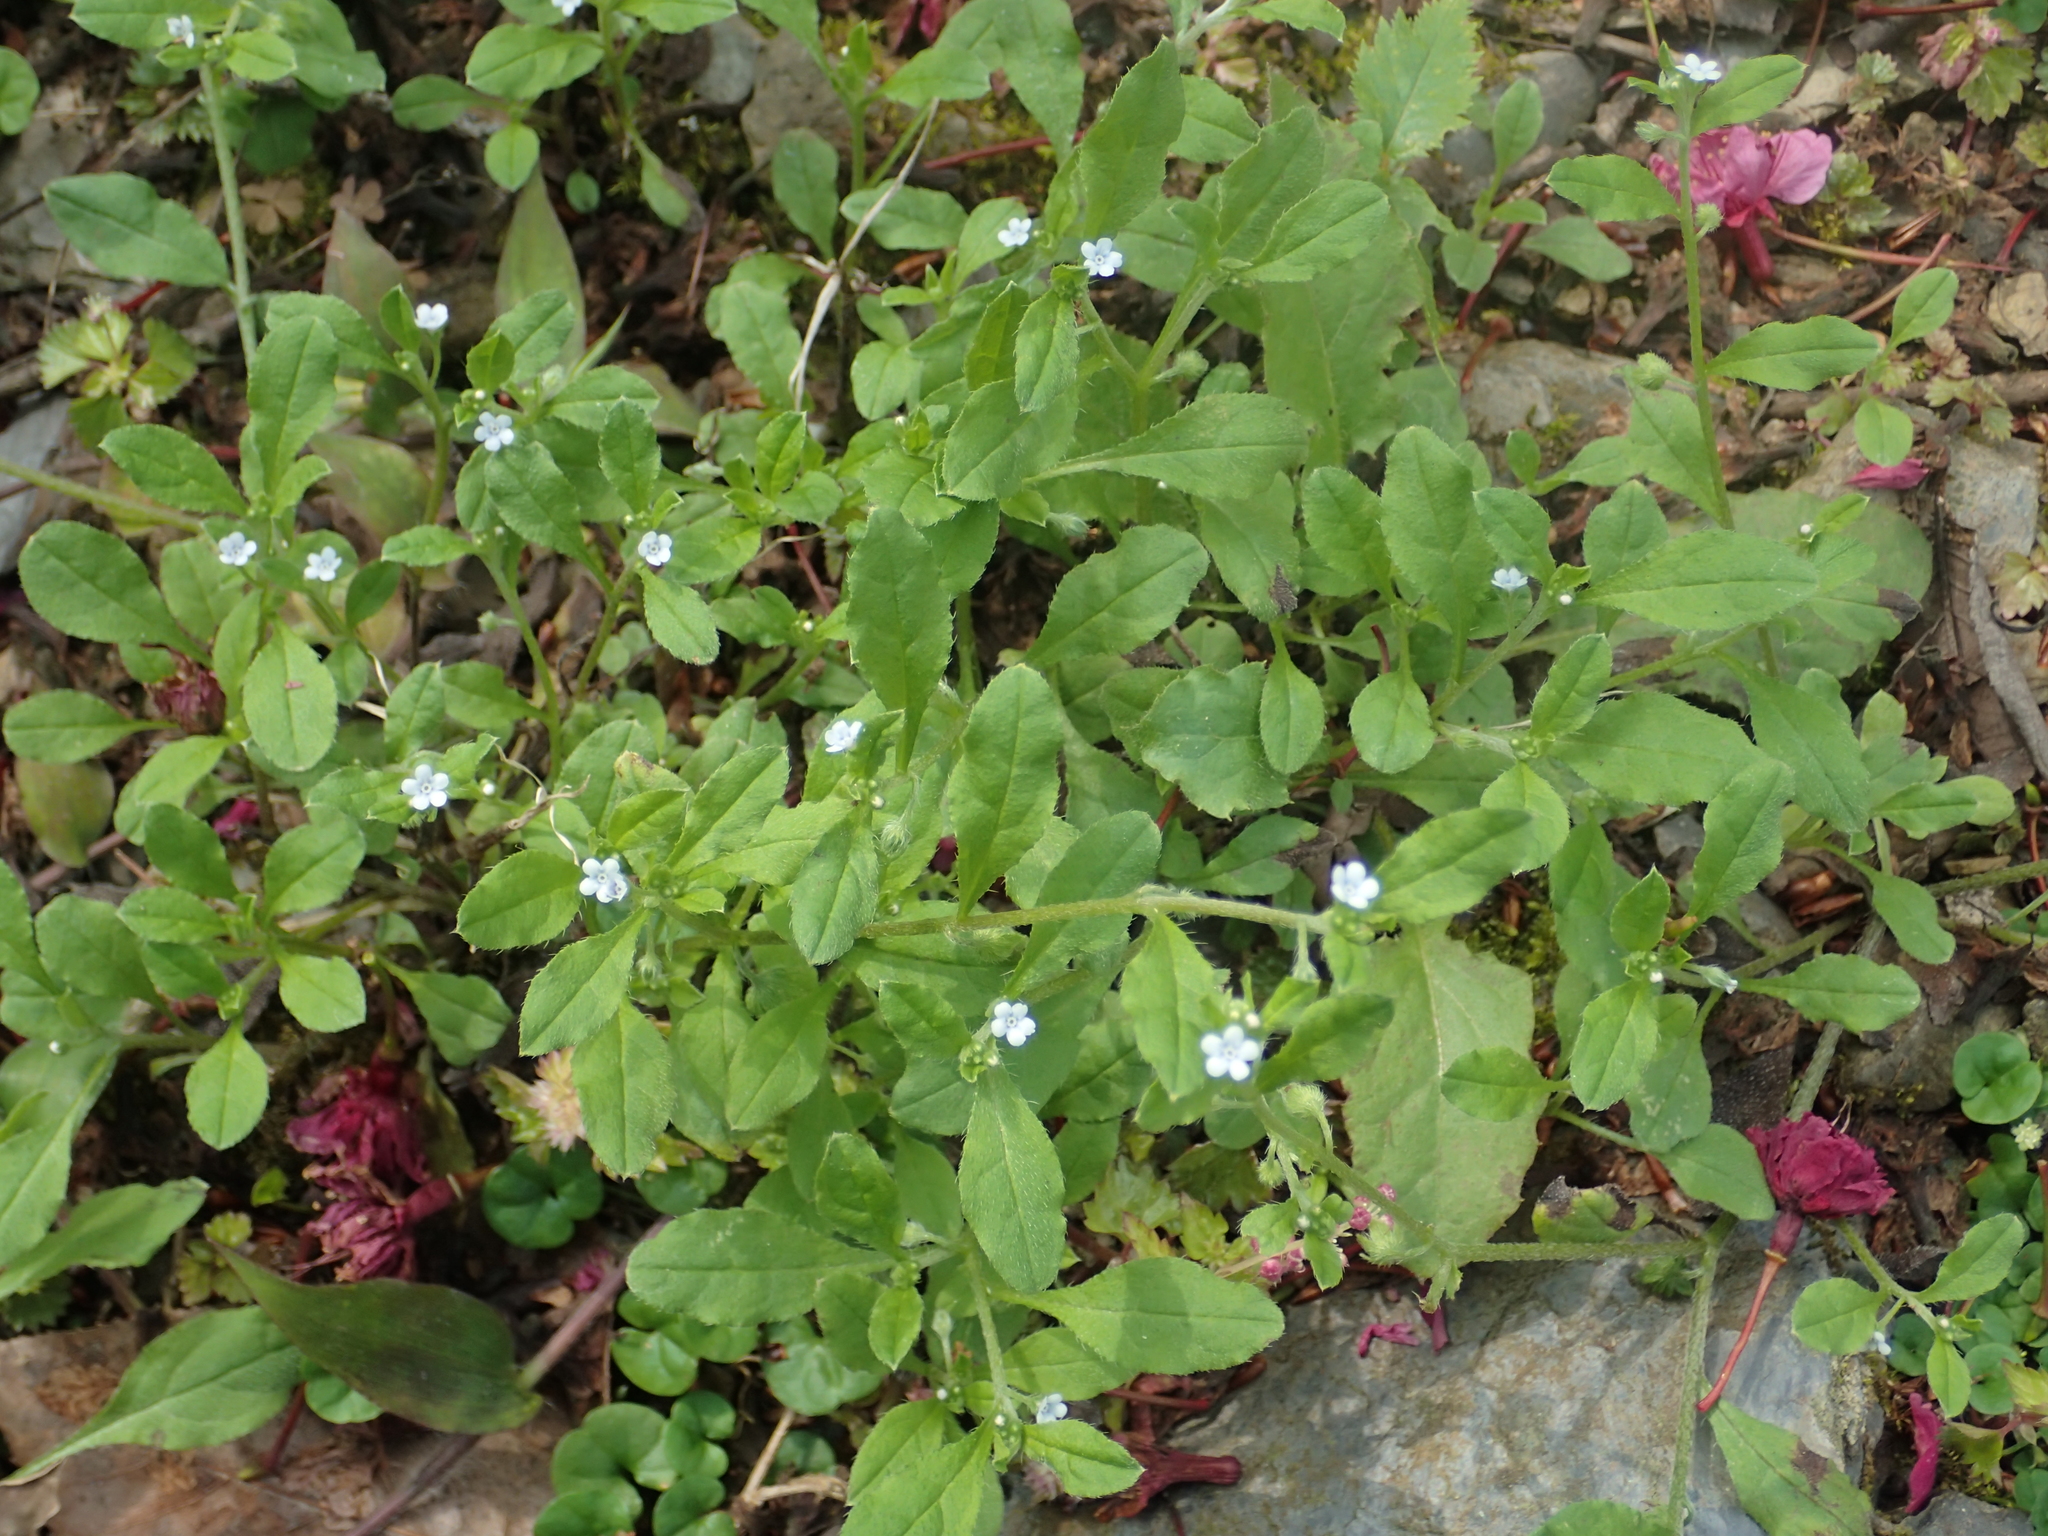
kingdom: Plantae
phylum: Tracheophyta
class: Magnoliopsida
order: Boraginales
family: Boraginaceae
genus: Bothriospermum
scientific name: Bothriospermum zeylanicum
